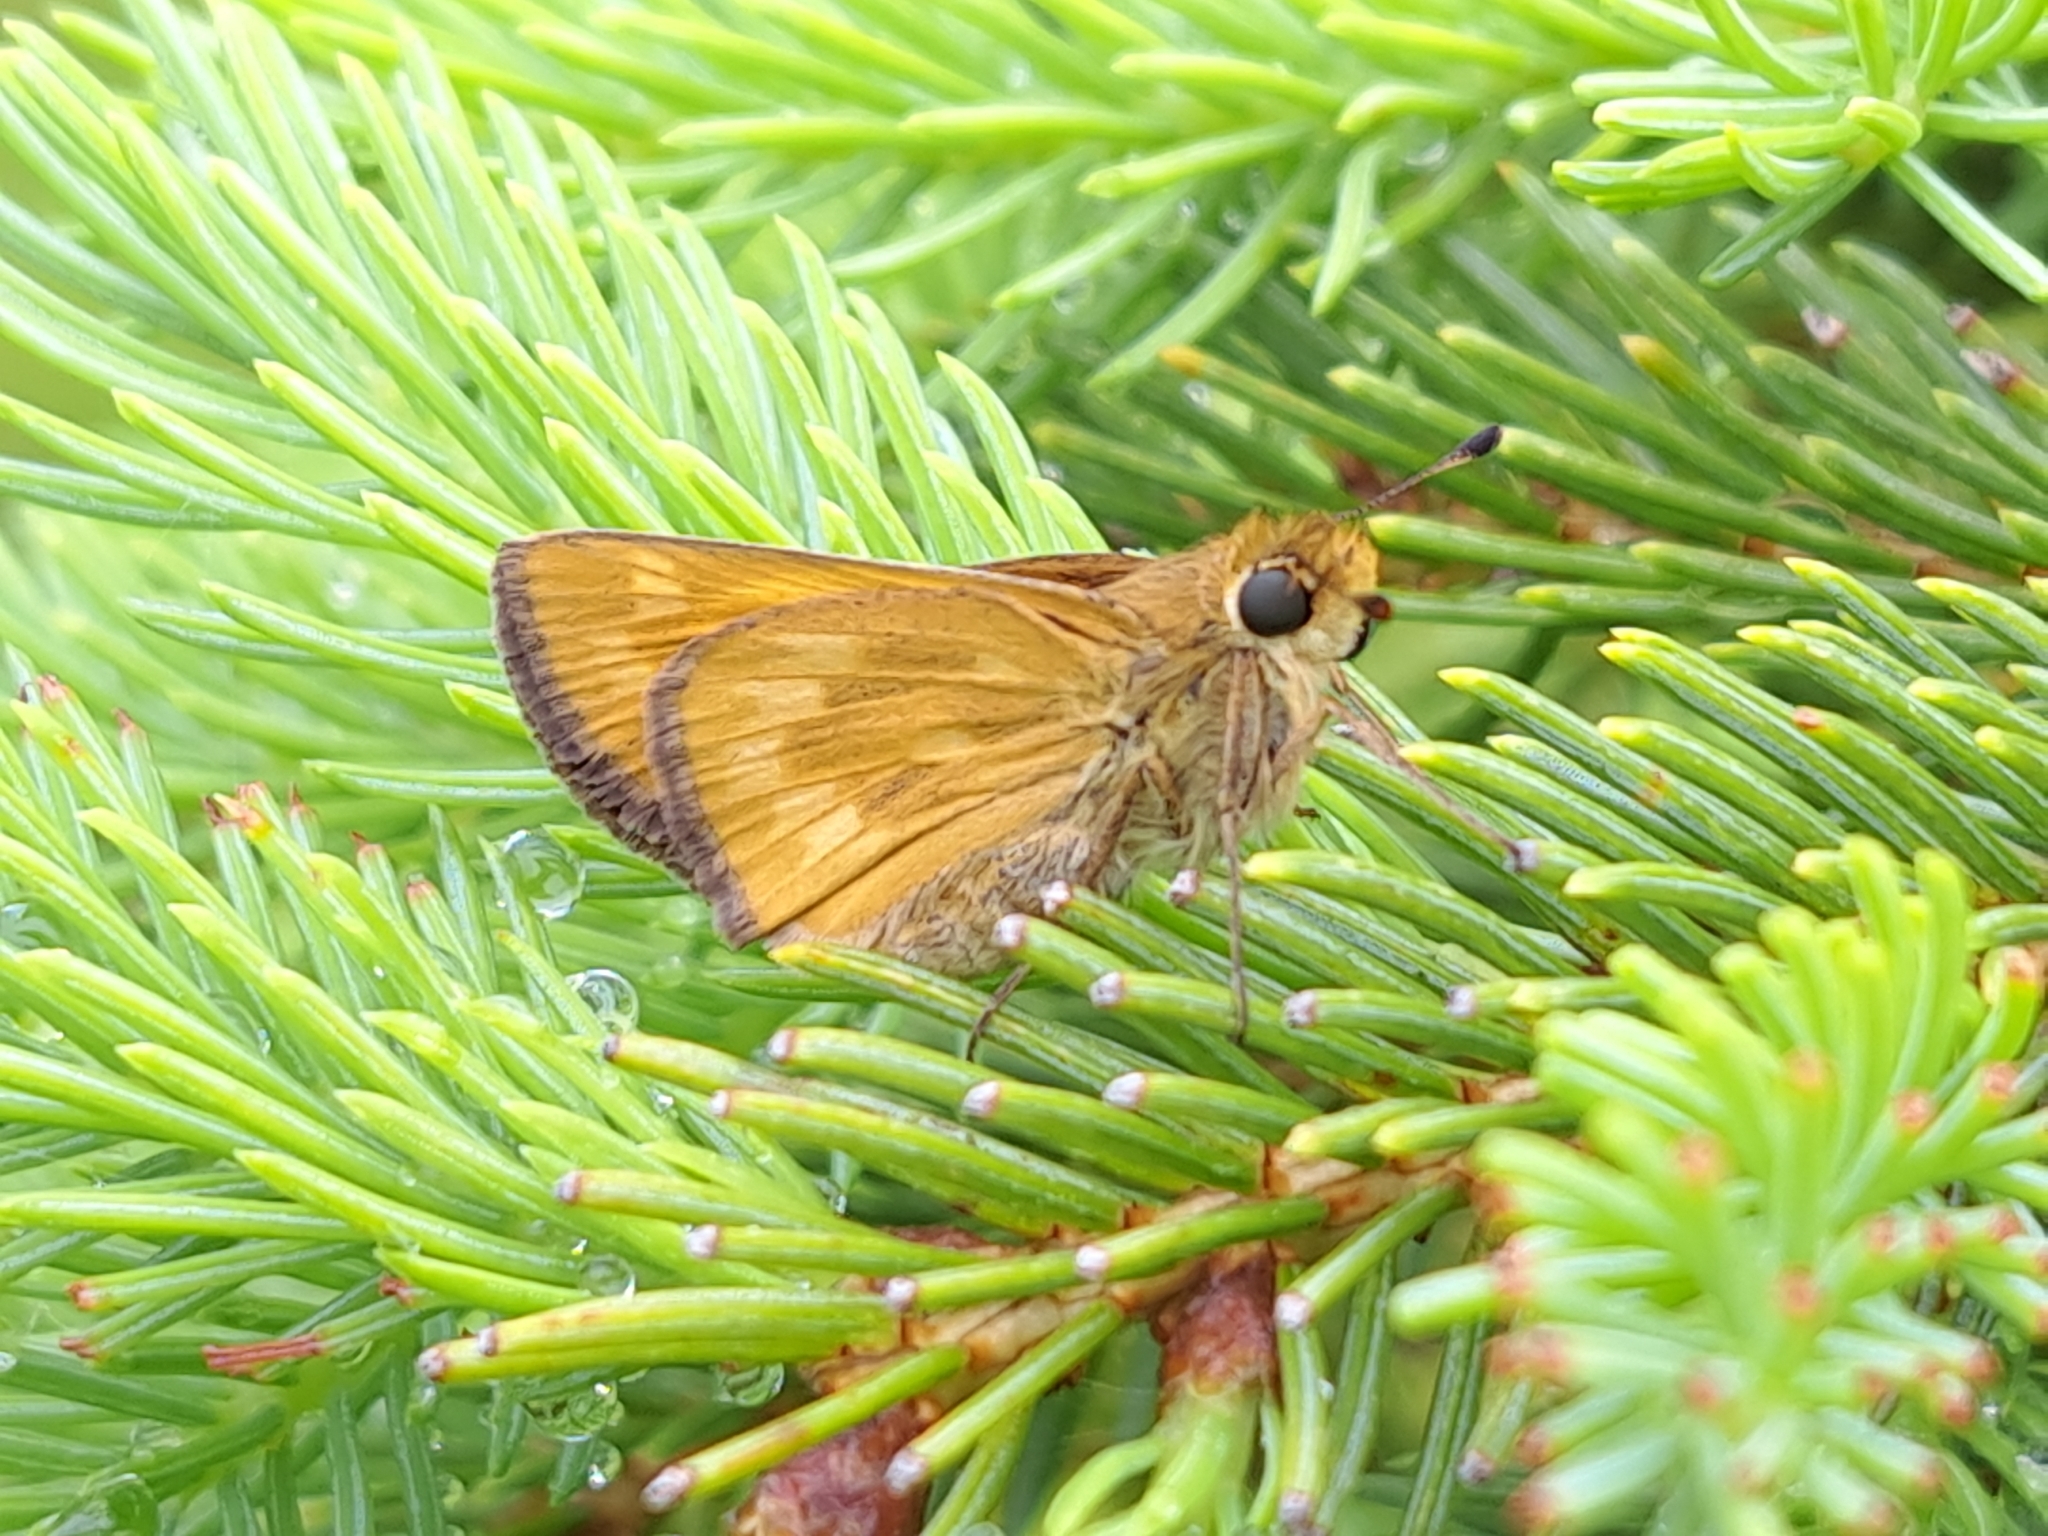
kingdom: Animalia
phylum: Arthropoda
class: Insecta
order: Lepidoptera
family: Hesperiidae
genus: Hesperia
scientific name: Hesperia sassacus
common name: Indian skipper
